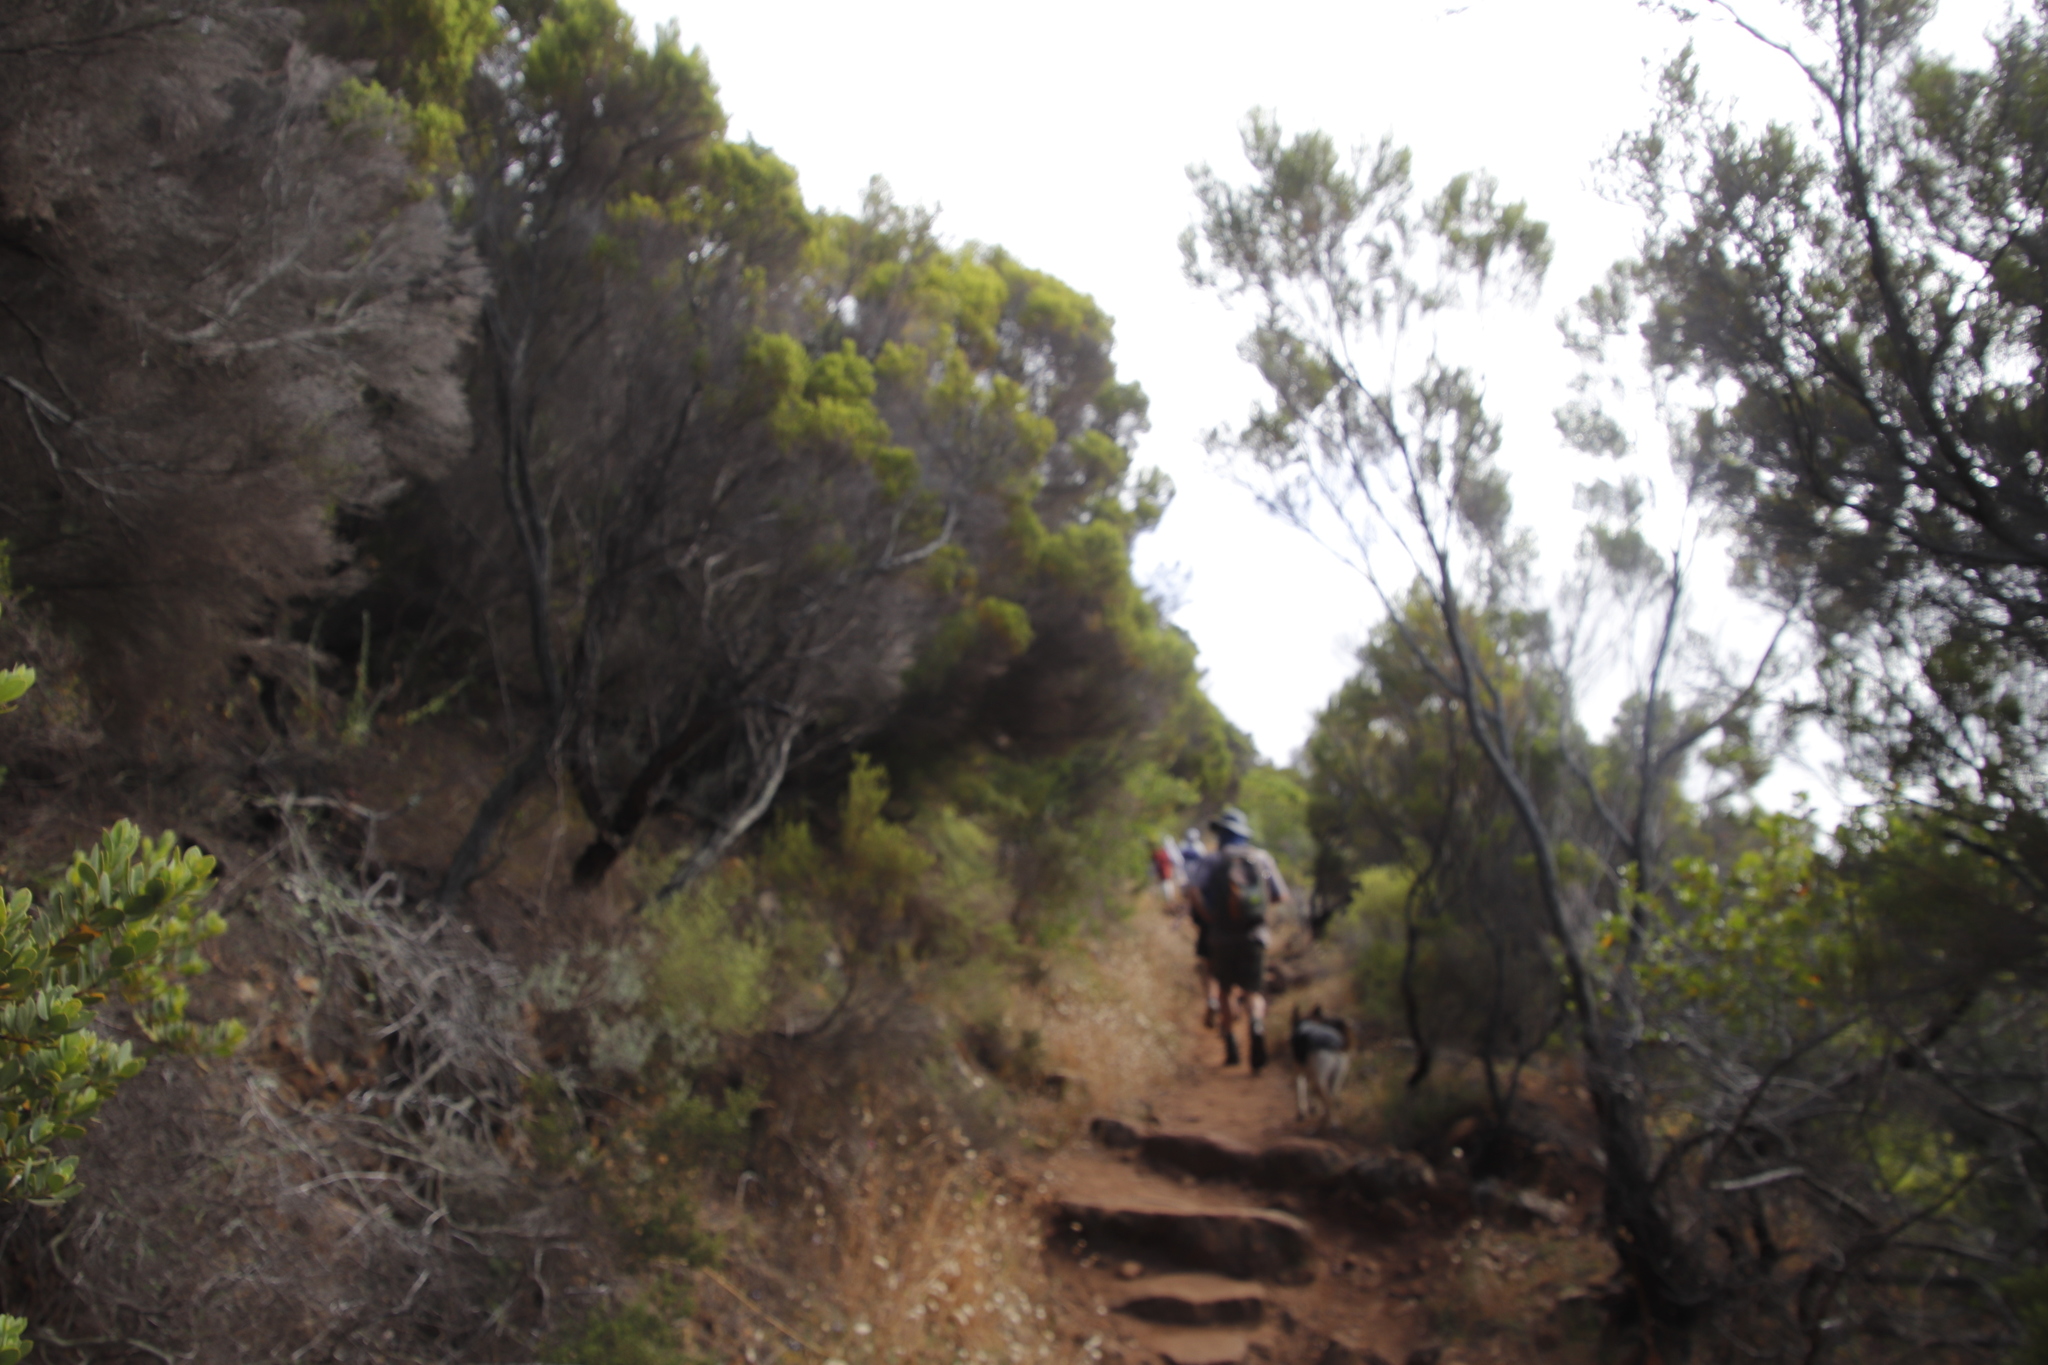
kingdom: Plantae
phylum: Tracheophyta
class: Magnoliopsida
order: Ericales
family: Ericaceae
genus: Erica
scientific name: Erica tristis
